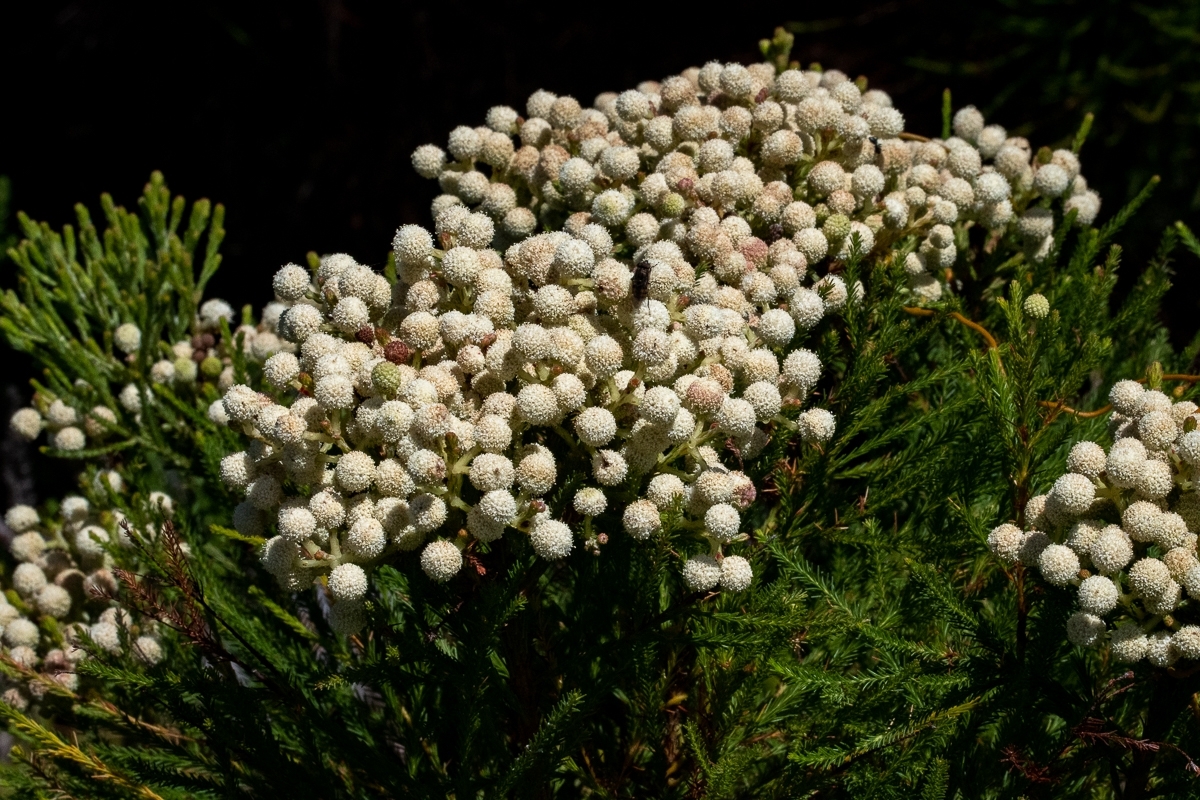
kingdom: Plantae
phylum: Tracheophyta
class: Magnoliopsida
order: Bruniales
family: Bruniaceae
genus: Berzelia
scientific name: Berzelia lanuginosa
